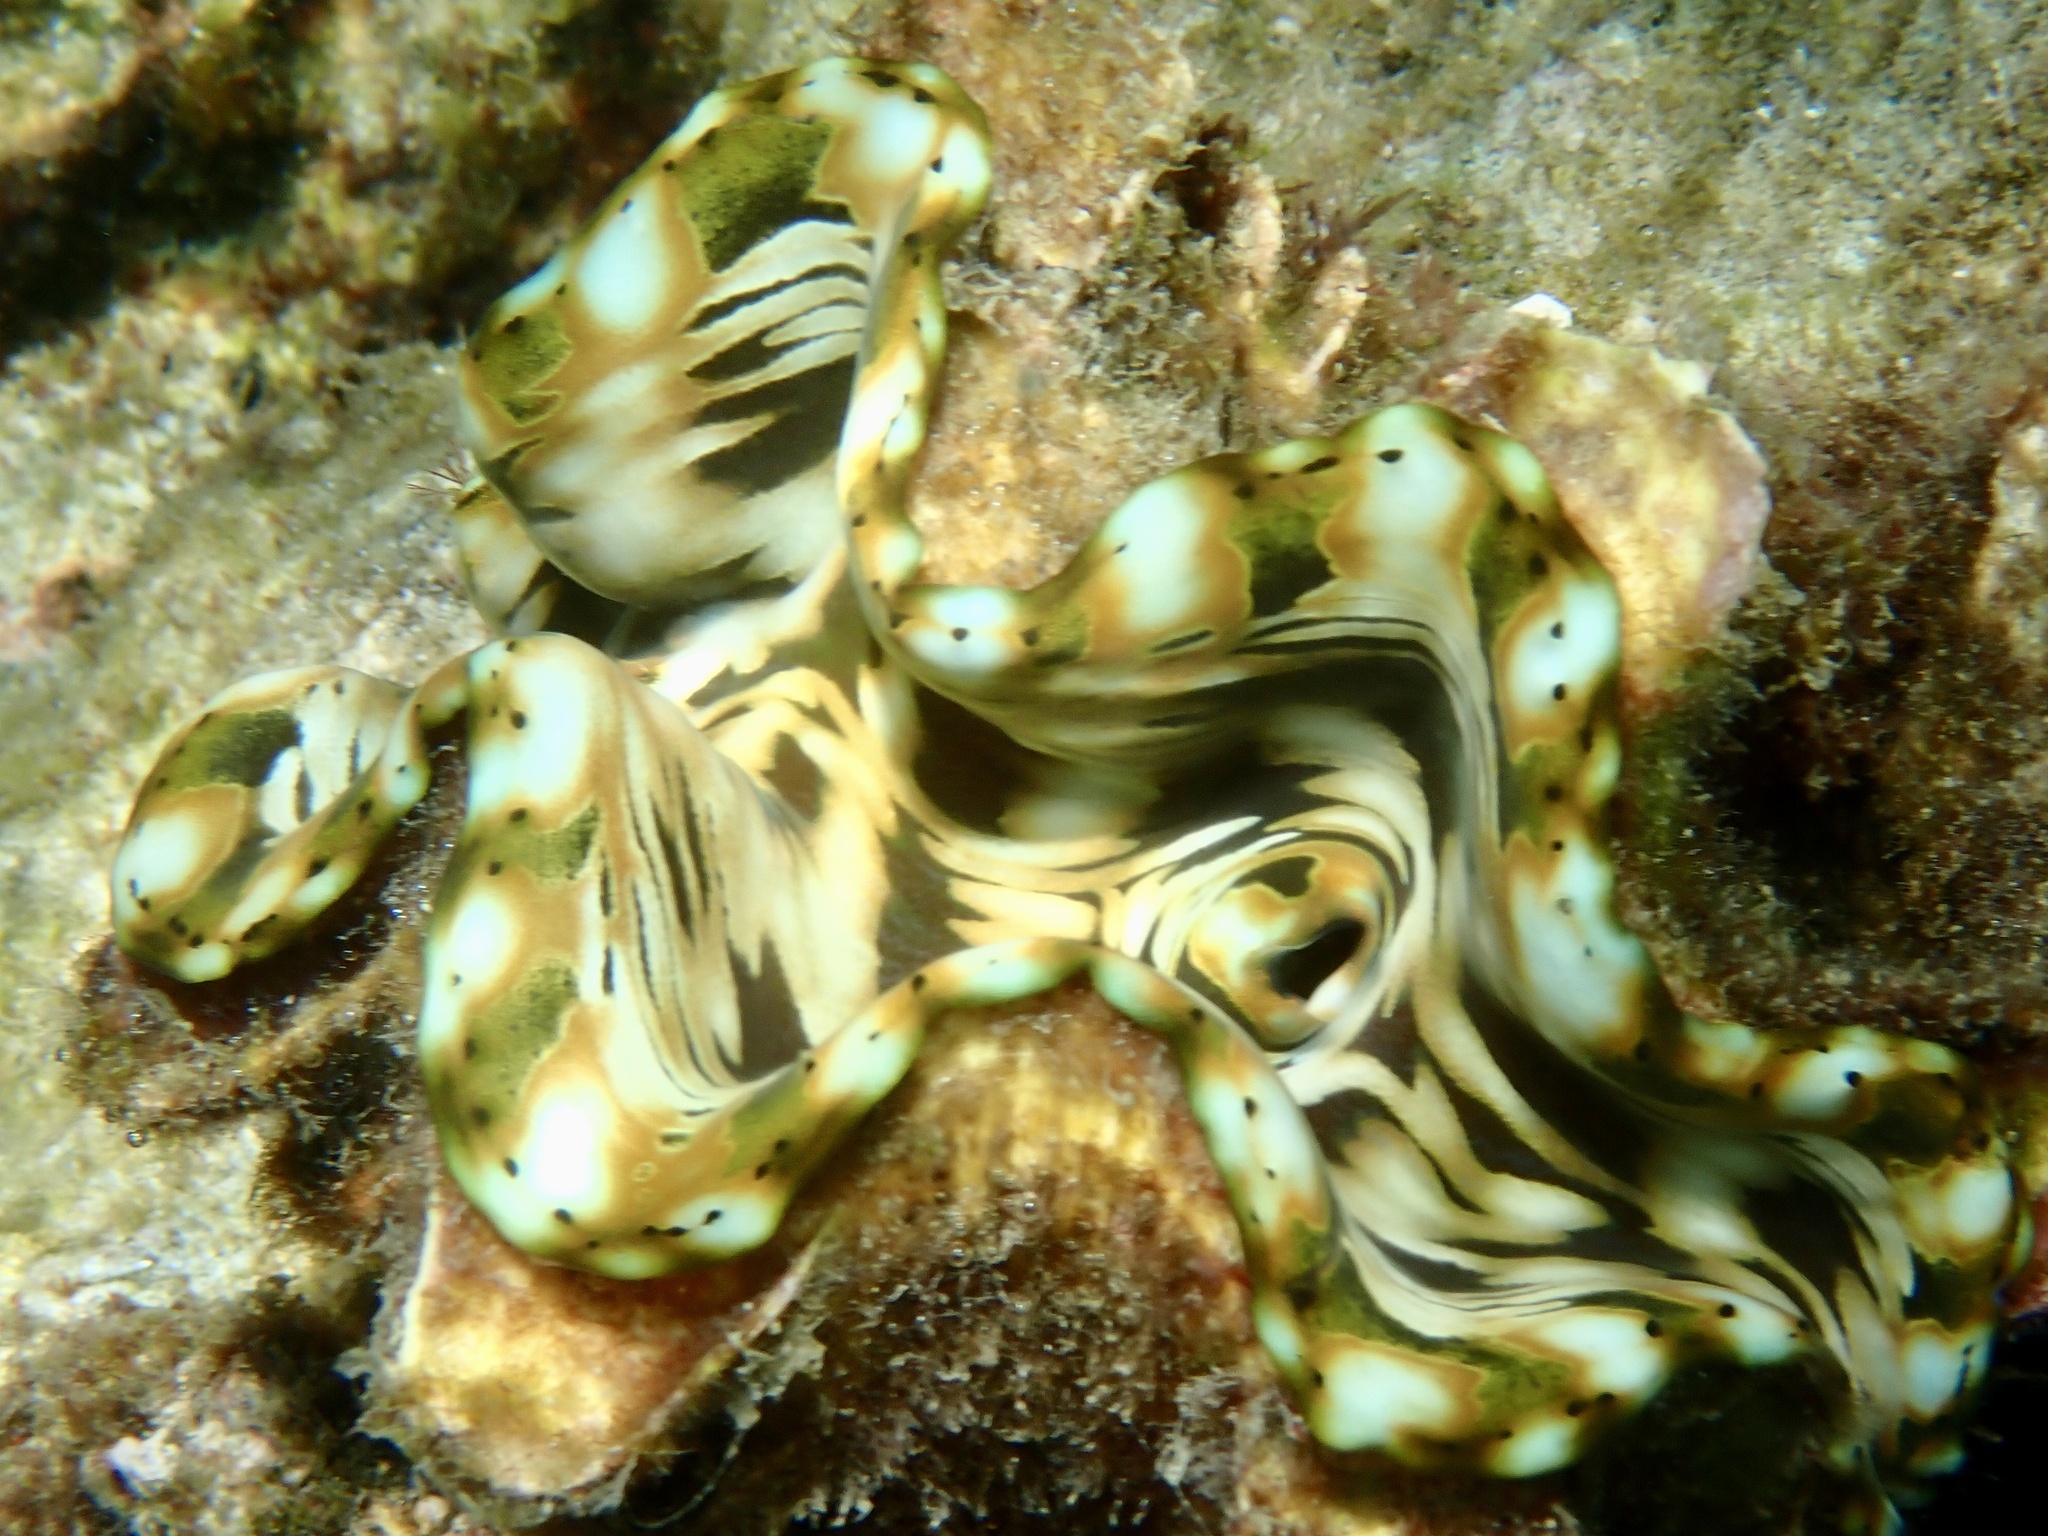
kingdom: Animalia
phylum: Mollusca
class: Bivalvia
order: Cardiida
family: Cardiidae
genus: Tridacna
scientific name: Tridacna squamosa
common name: Fluted clam
